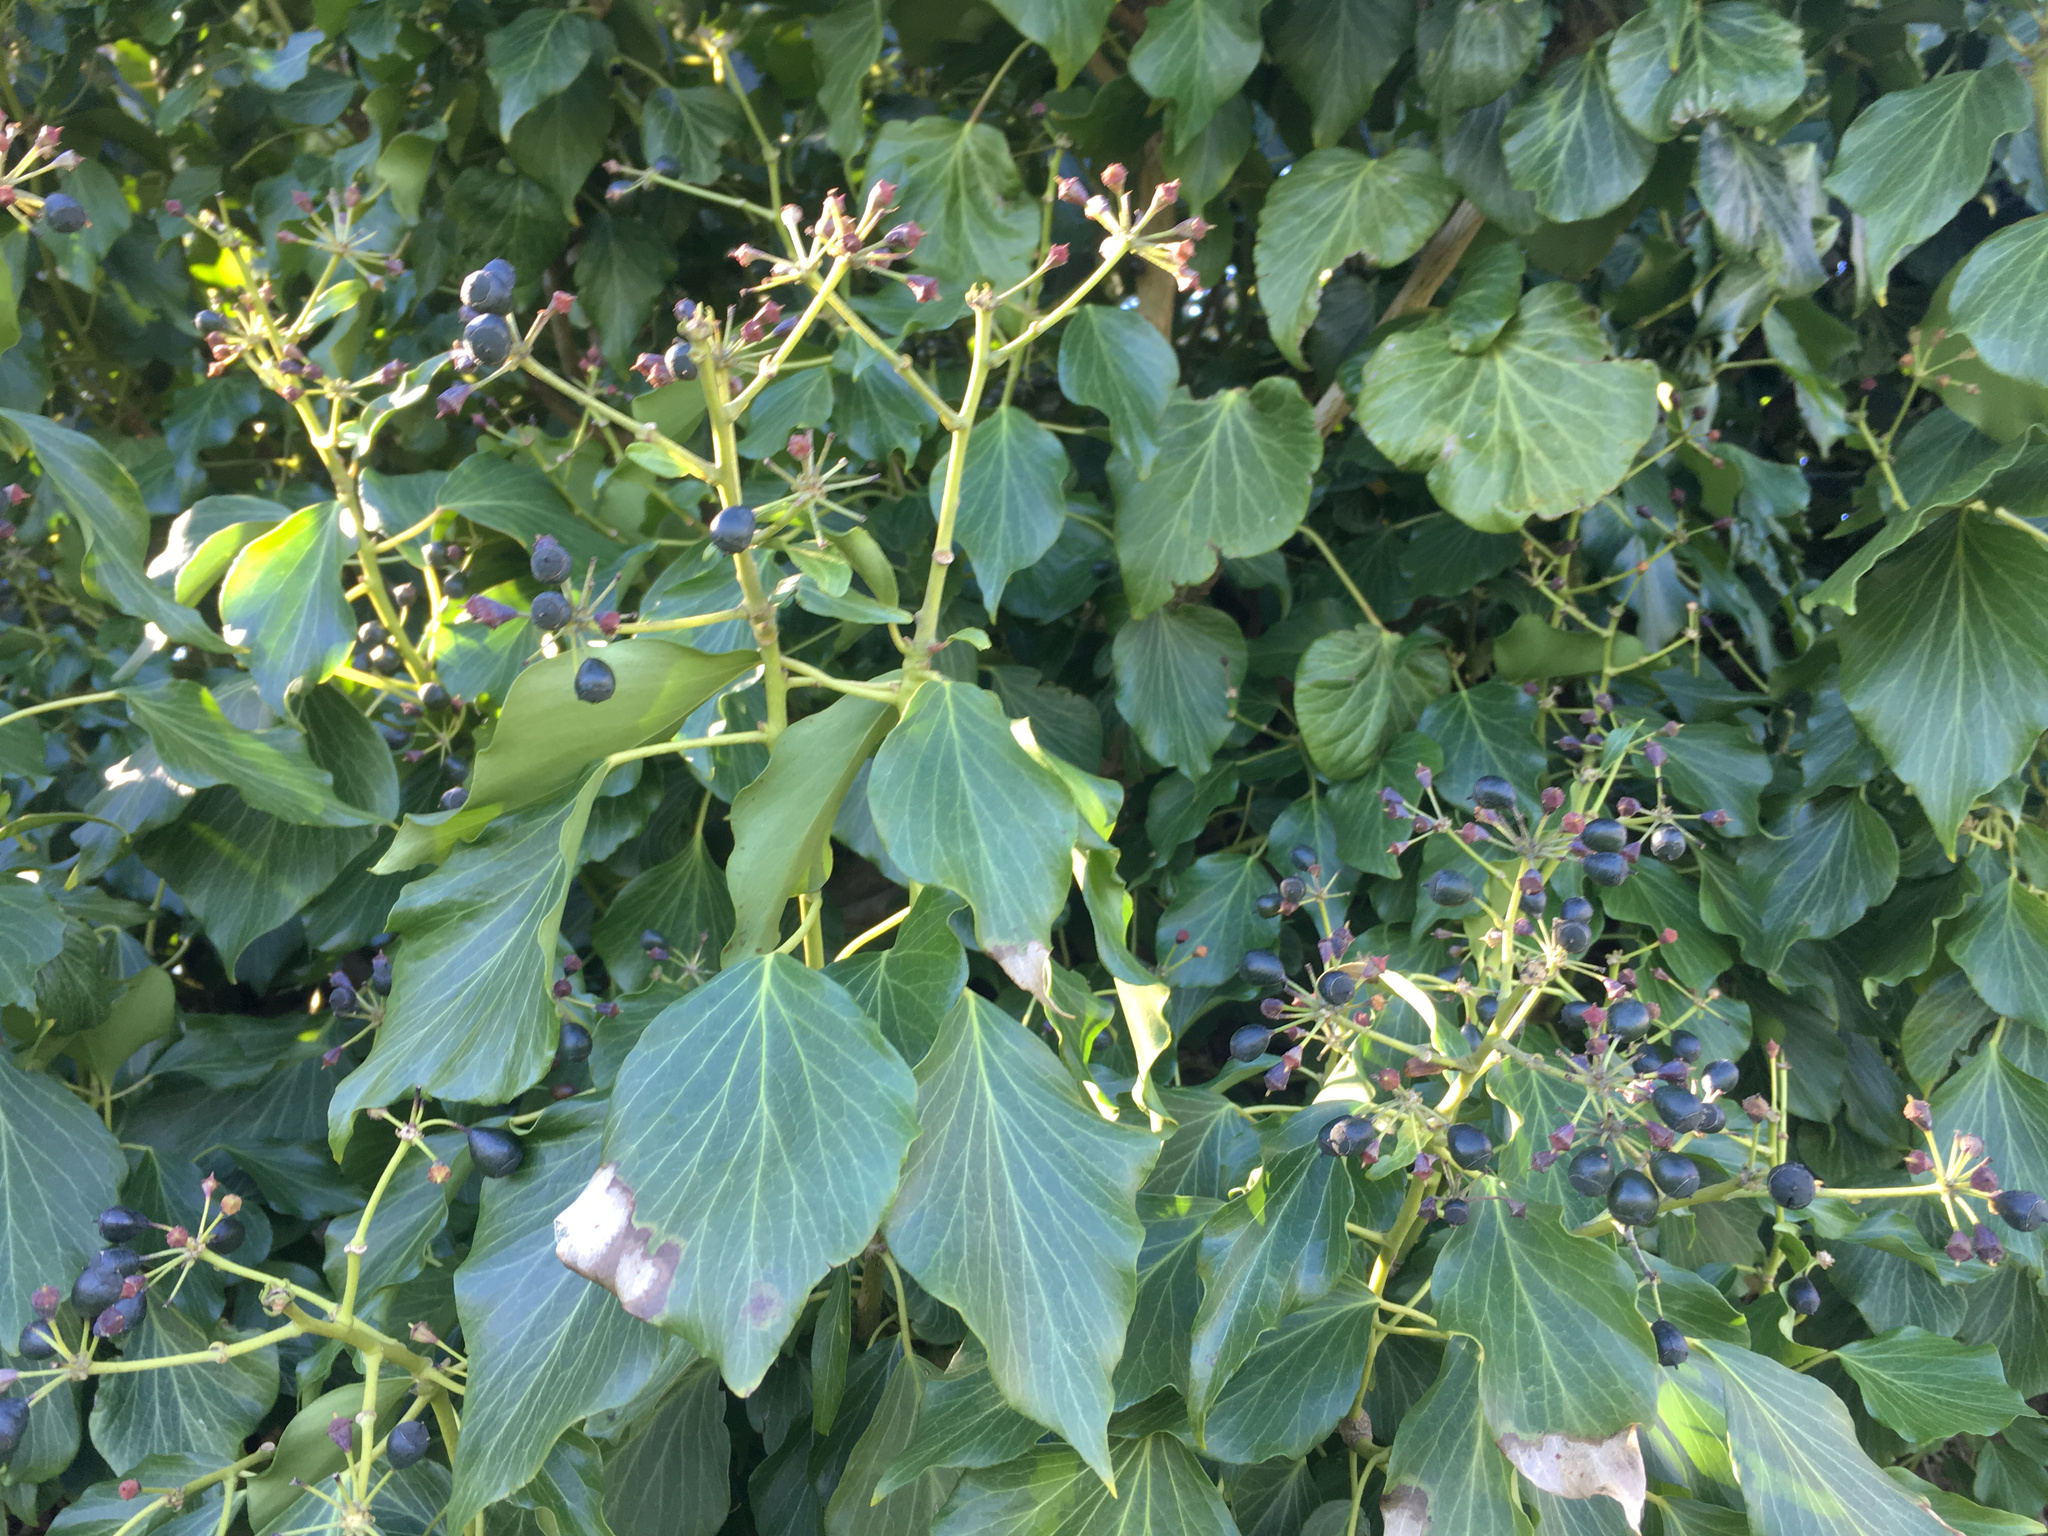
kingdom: Plantae
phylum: Tracheophyta
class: Magnoliopsida
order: Apiales
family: Araliaceae
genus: Hedera
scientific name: Hedera helix
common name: Ivy
